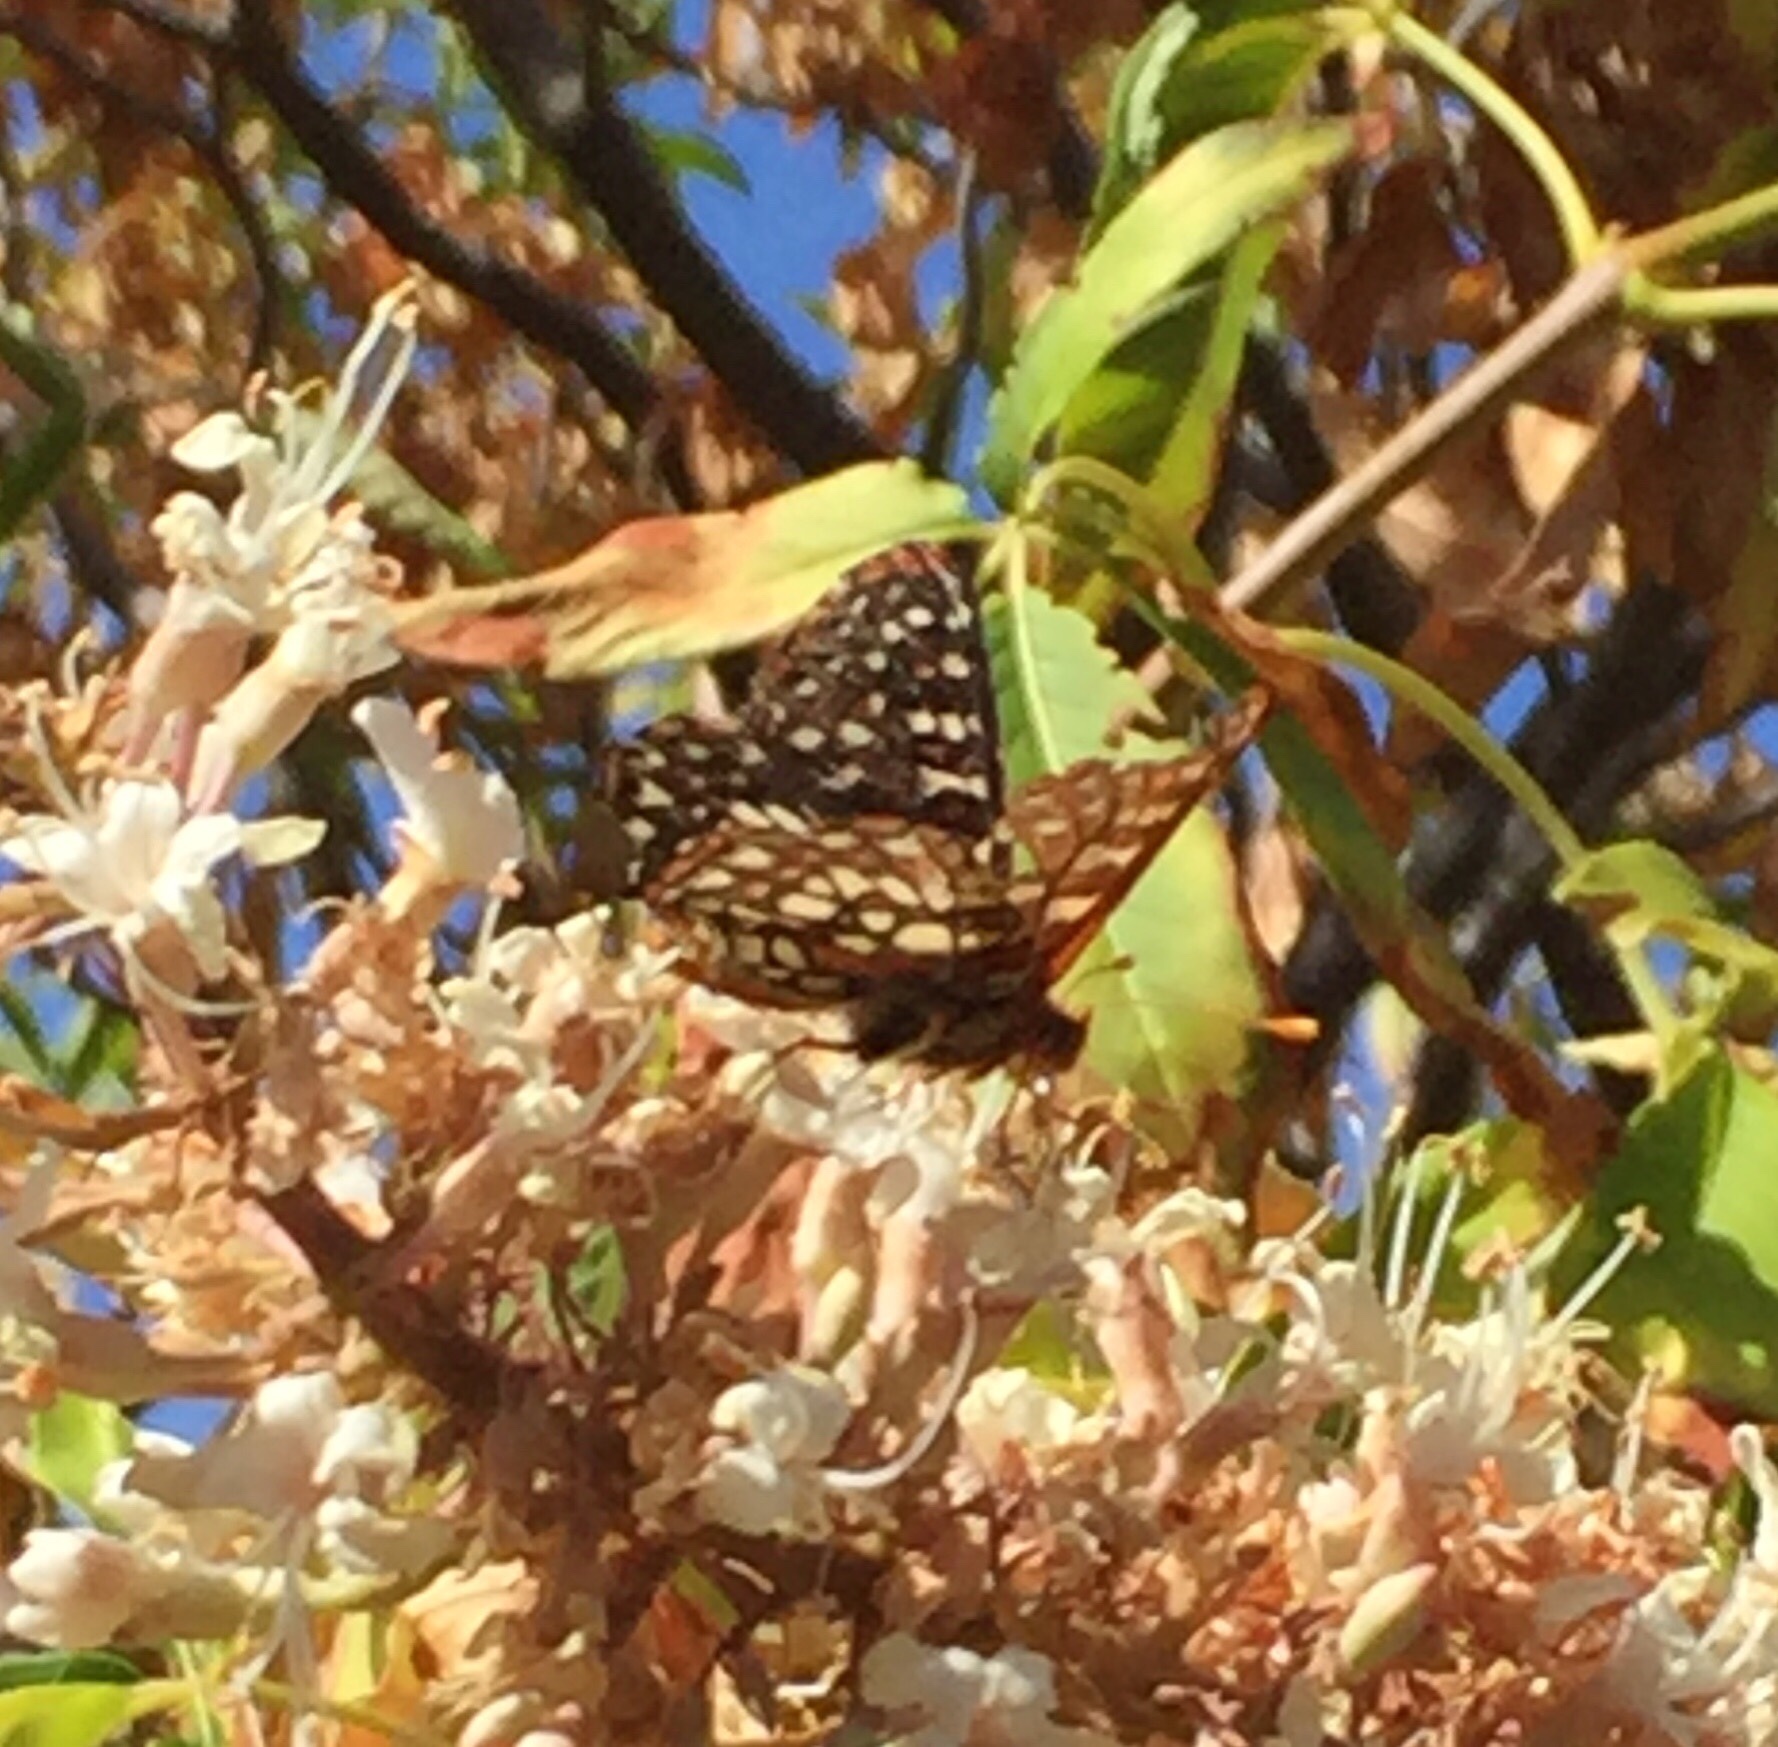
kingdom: Animalia
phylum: Arthropoda
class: Insecta
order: Lepidoptera
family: Nymphalidae
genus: Occidryas
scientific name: Occidryas chalcedona
